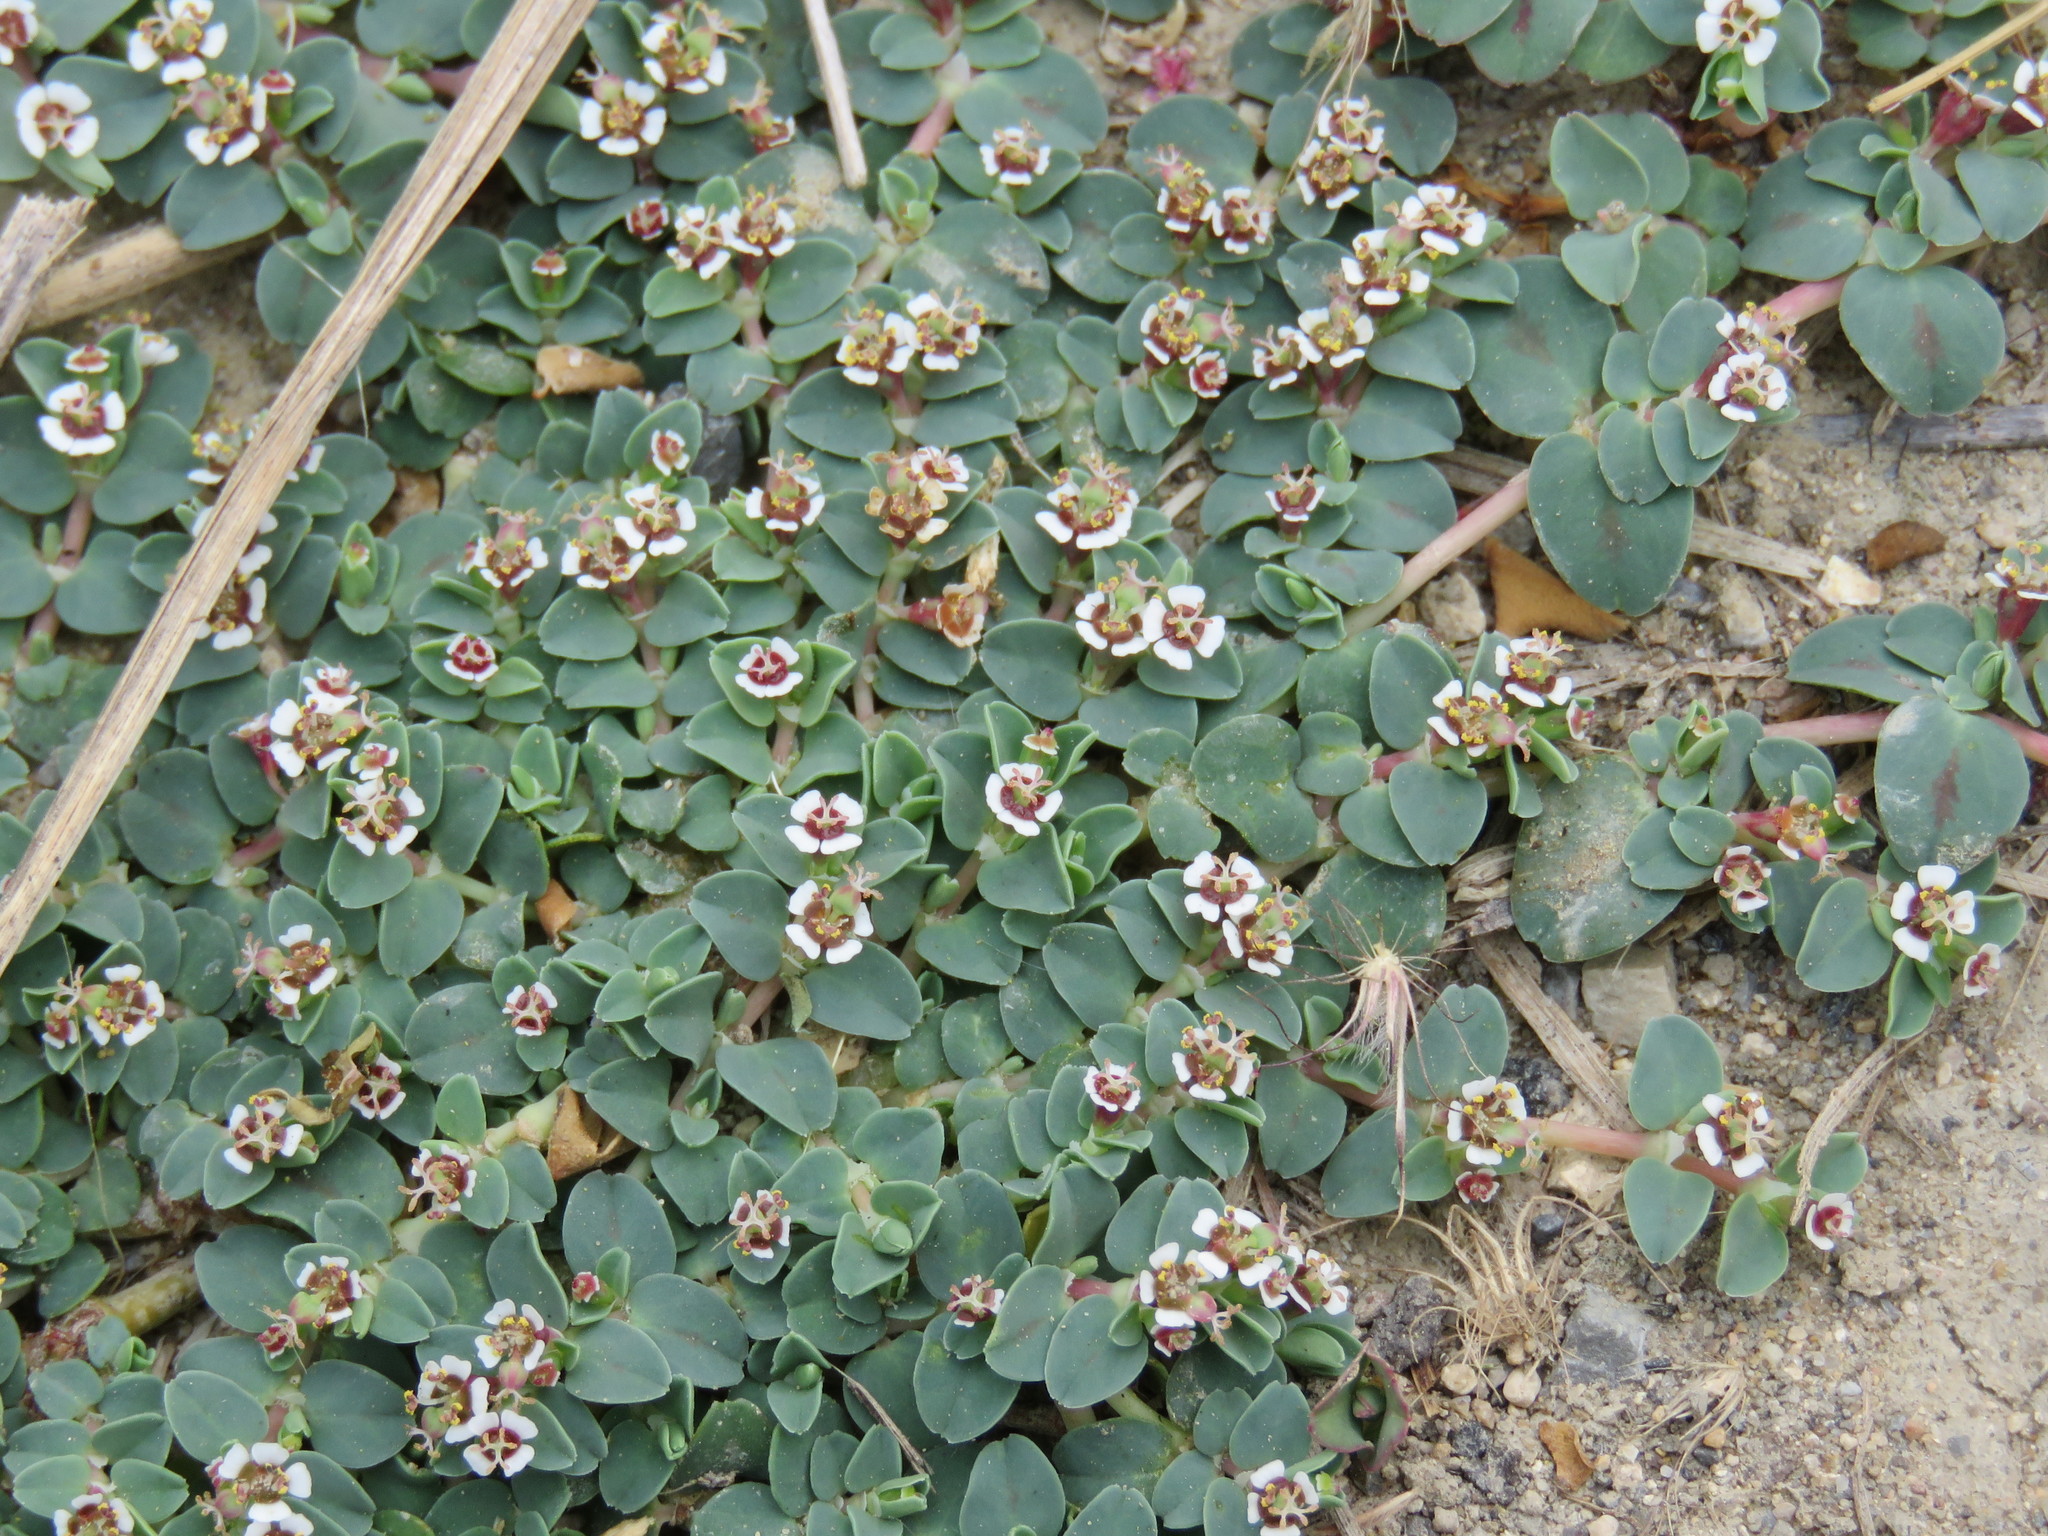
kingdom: Plantae
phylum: Tracheophyta
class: Magnoliopsida
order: Malpighiales
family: Euphorbiaceae
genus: Euphorbia
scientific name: Euphorbia albomarginata
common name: Whitemargin sandmat
